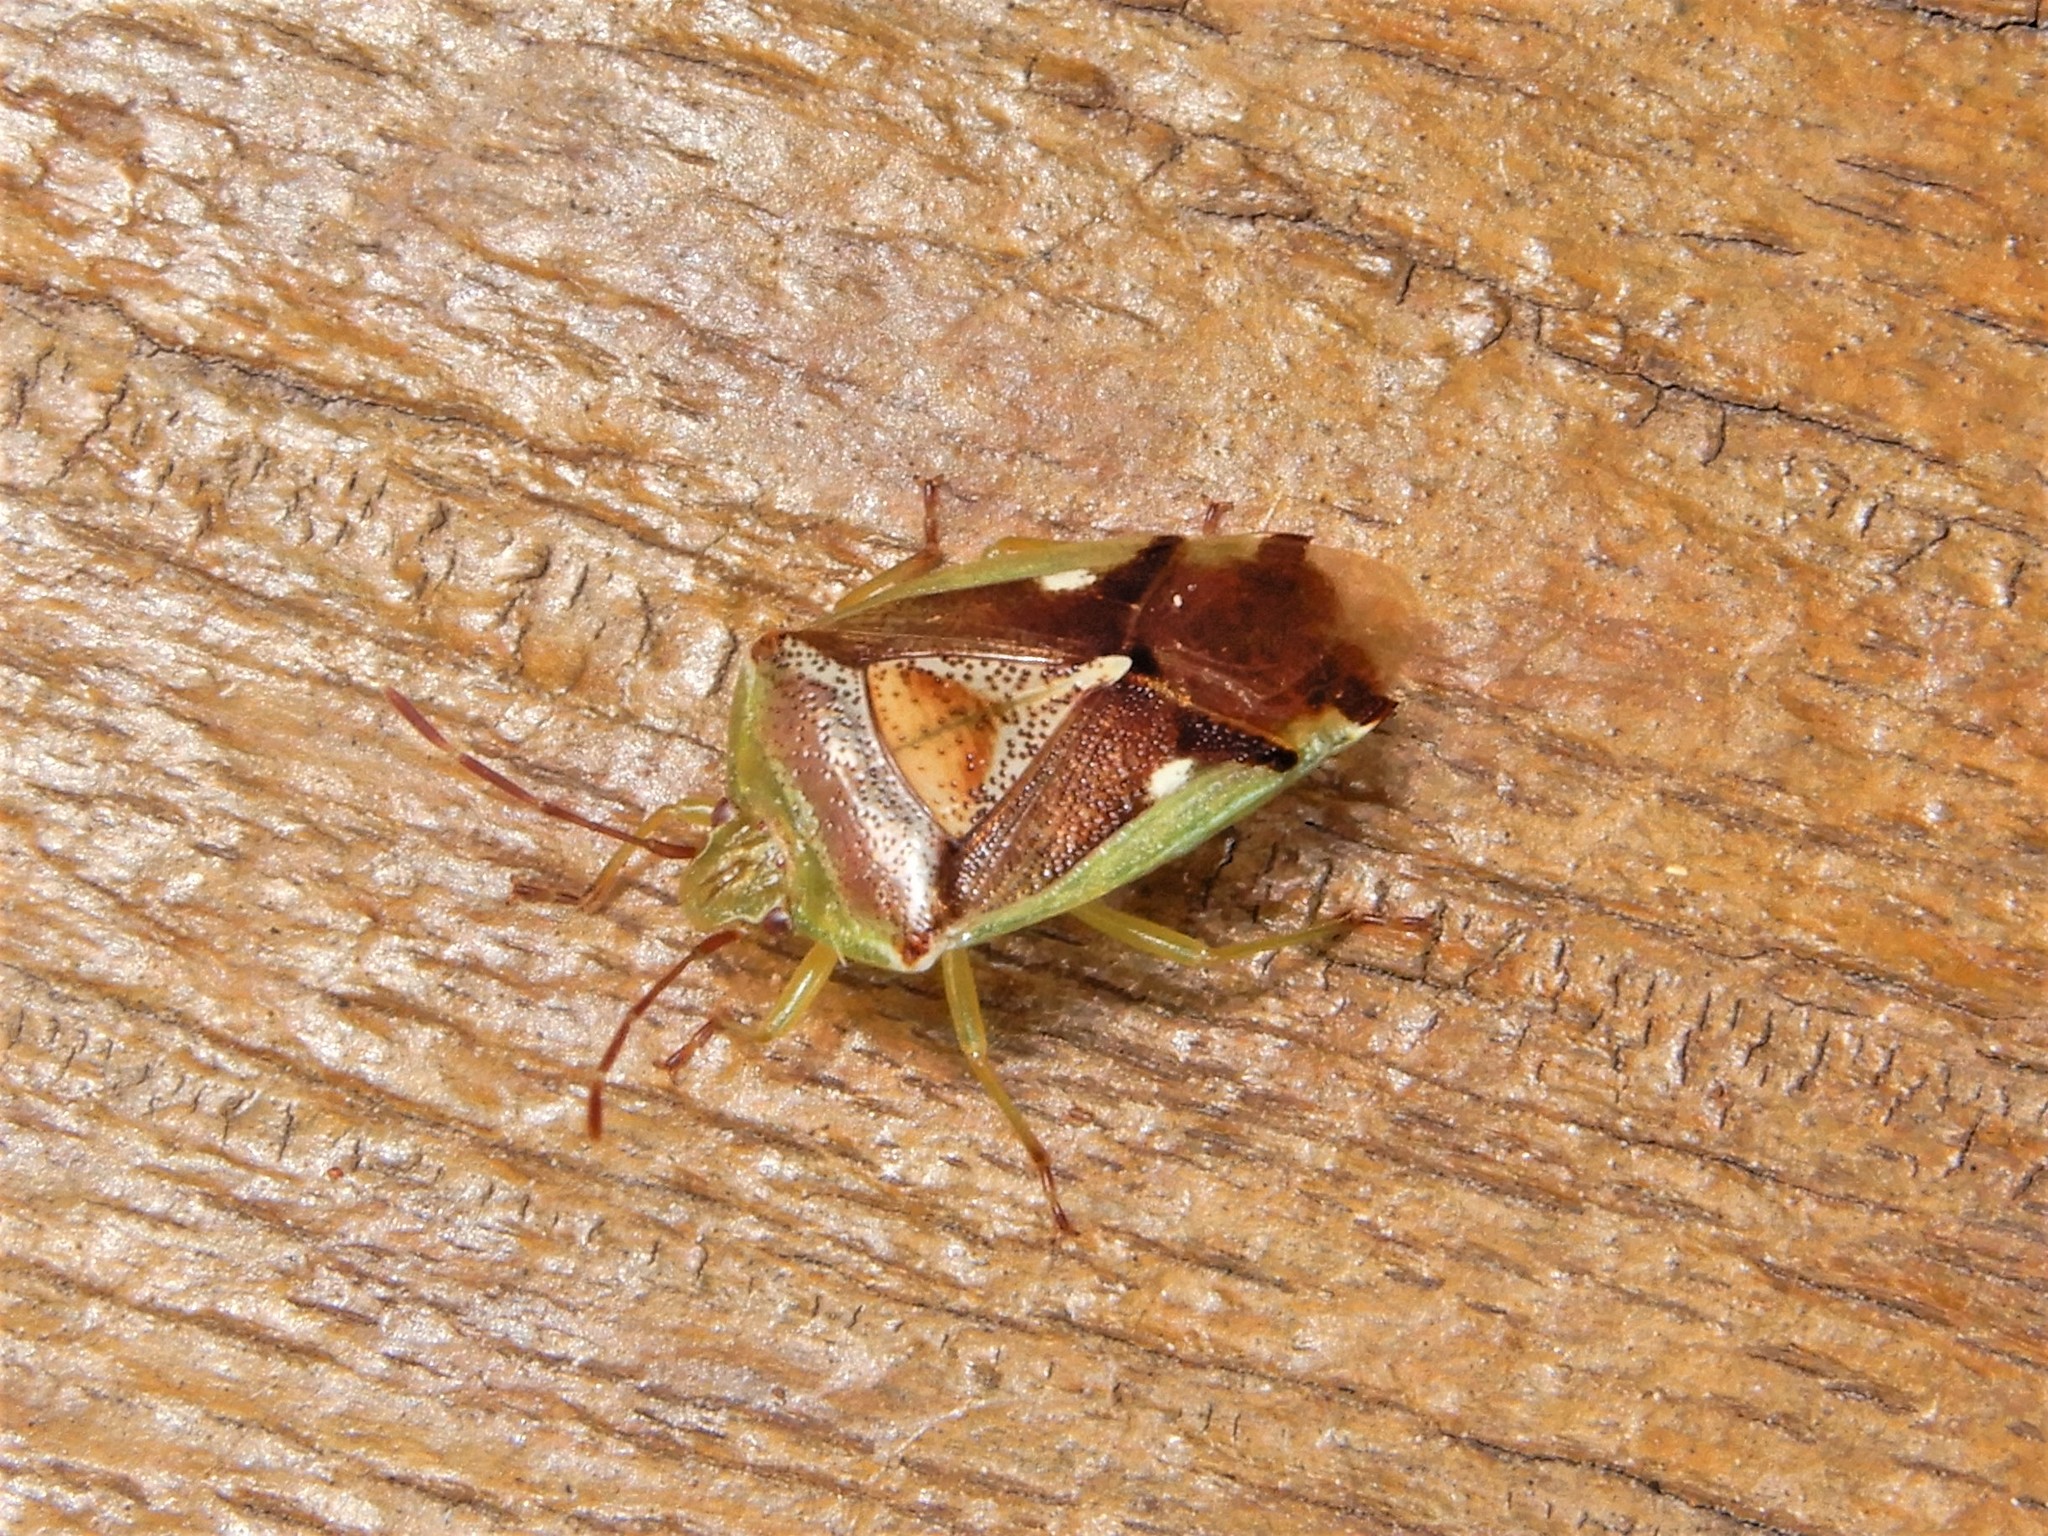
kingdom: Animalia
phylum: Arthropoda
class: Insecta
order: Hemiptera
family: Acanthosomatidae
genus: Oncacontias
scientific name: Oncacontias vittatus
